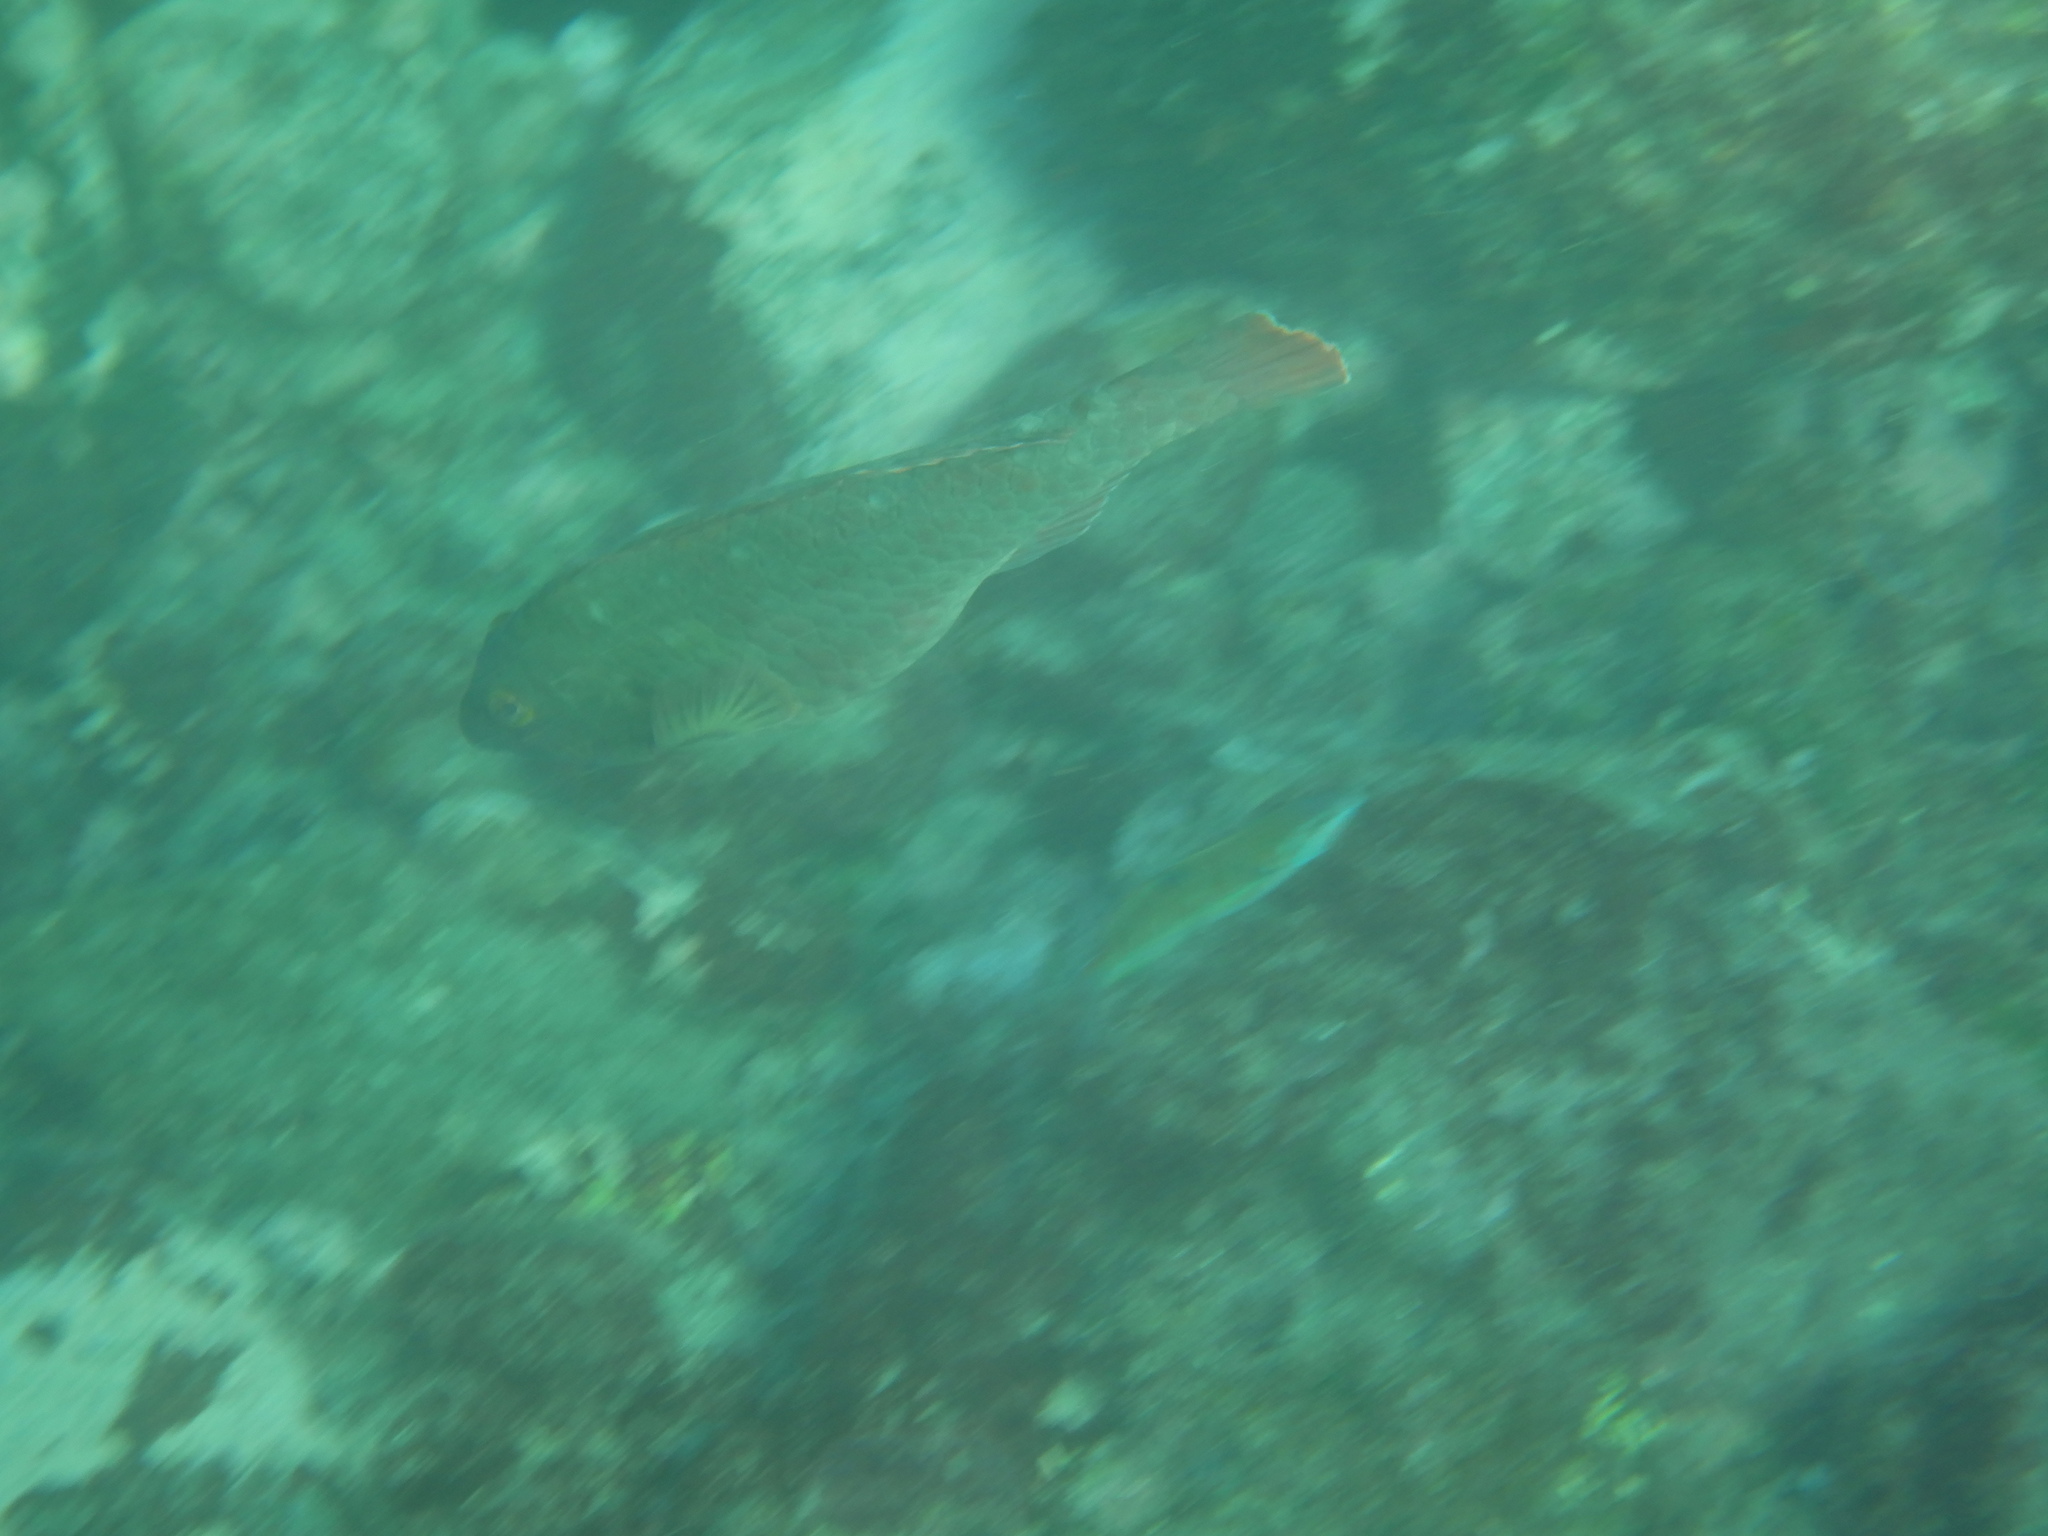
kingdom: Animalia
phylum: Chordata
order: Perciformes
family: Scaridae
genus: Sparisoma
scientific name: Sparisoma cretense
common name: Parrotfish
